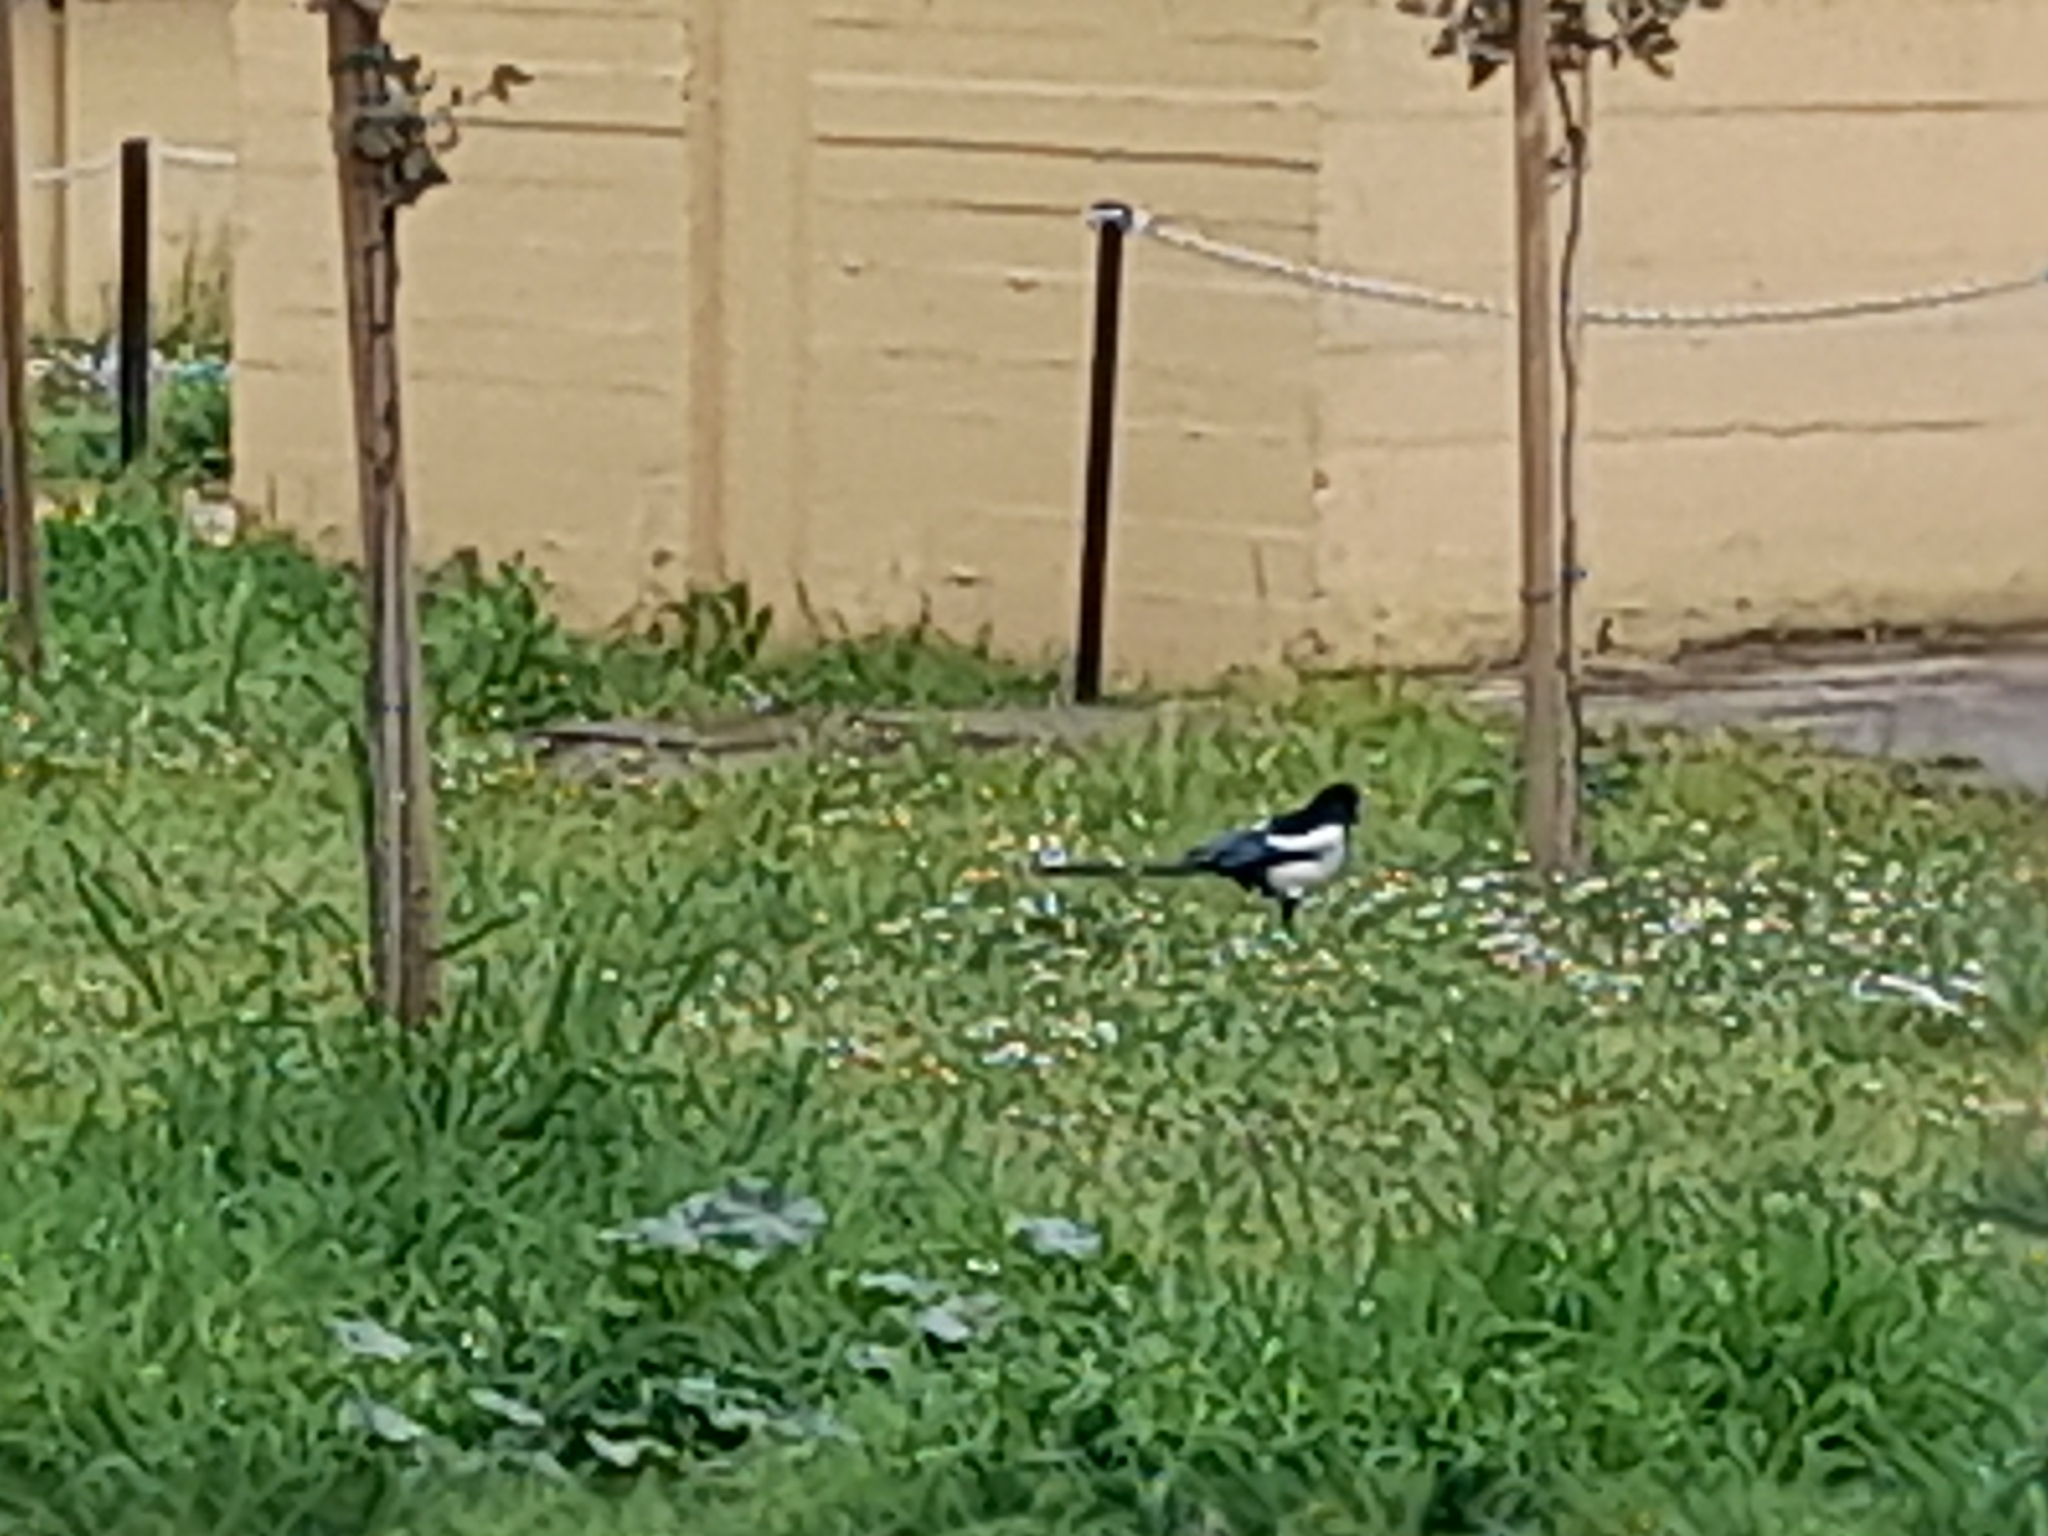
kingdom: Animalia
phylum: Chordata
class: Aves
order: Passeriformes
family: Corvidae
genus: Pica
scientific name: Pica pica
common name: Eurasian magpie
